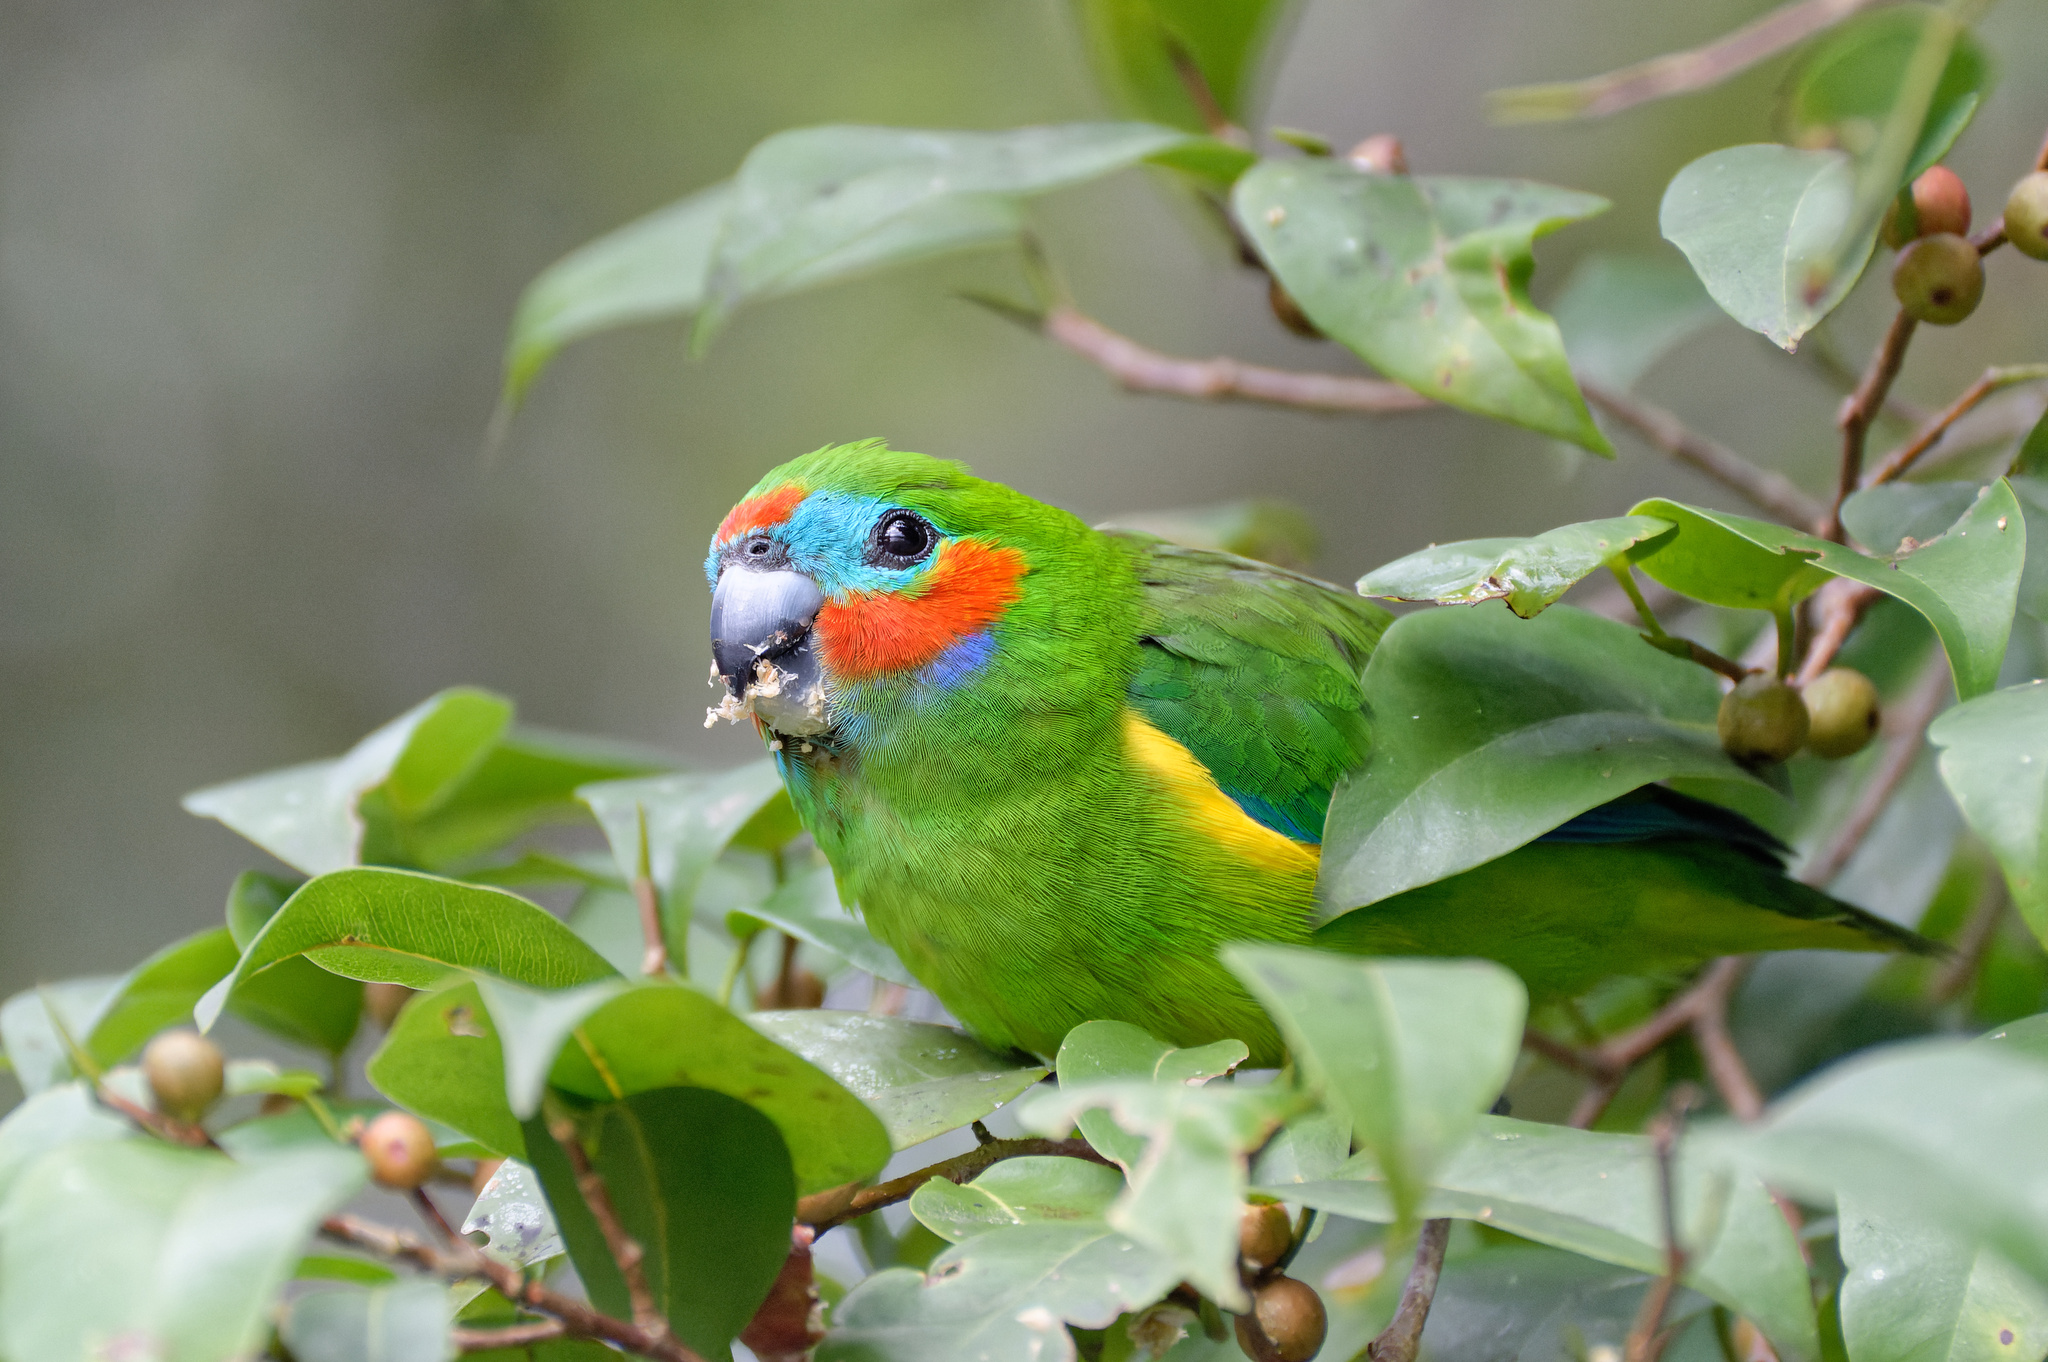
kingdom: Animalia
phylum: Chordata
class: Aves
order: Psittaciformes
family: Psittacidae
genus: Cyclopsitta
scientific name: Cyclopsitta diophthalma
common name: Double-eyed fig parrot
